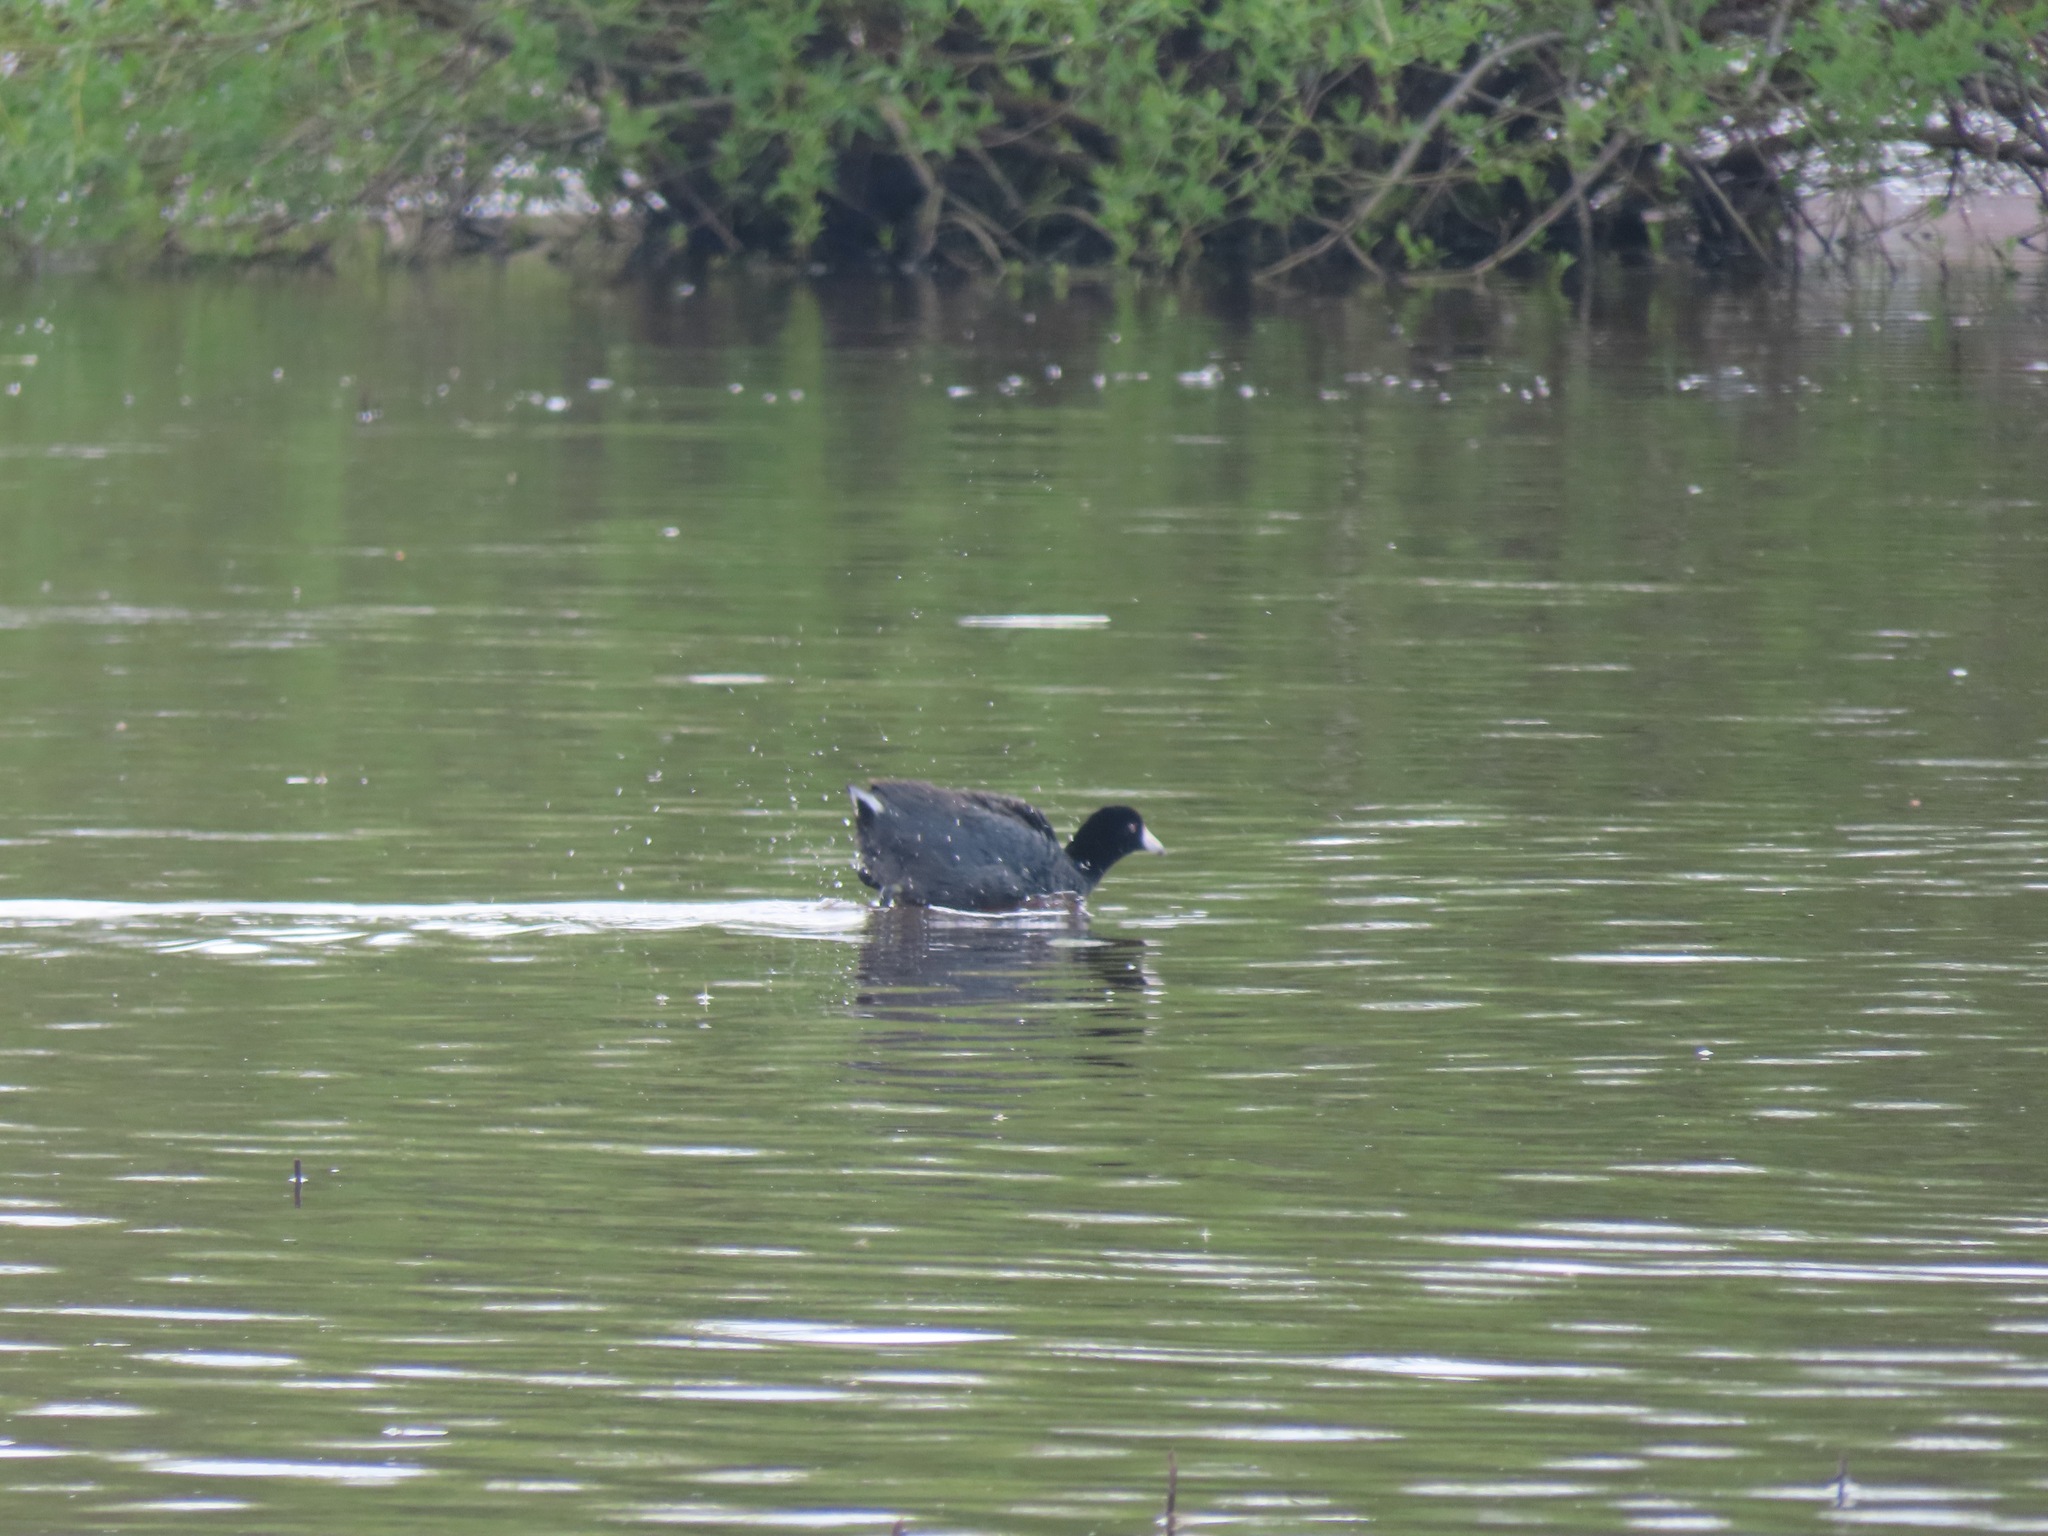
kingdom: Animalia
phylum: Chordata
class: Aves
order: Gruiformes
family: Rallidae
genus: Fulica
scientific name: Fulica americana
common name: American coot
